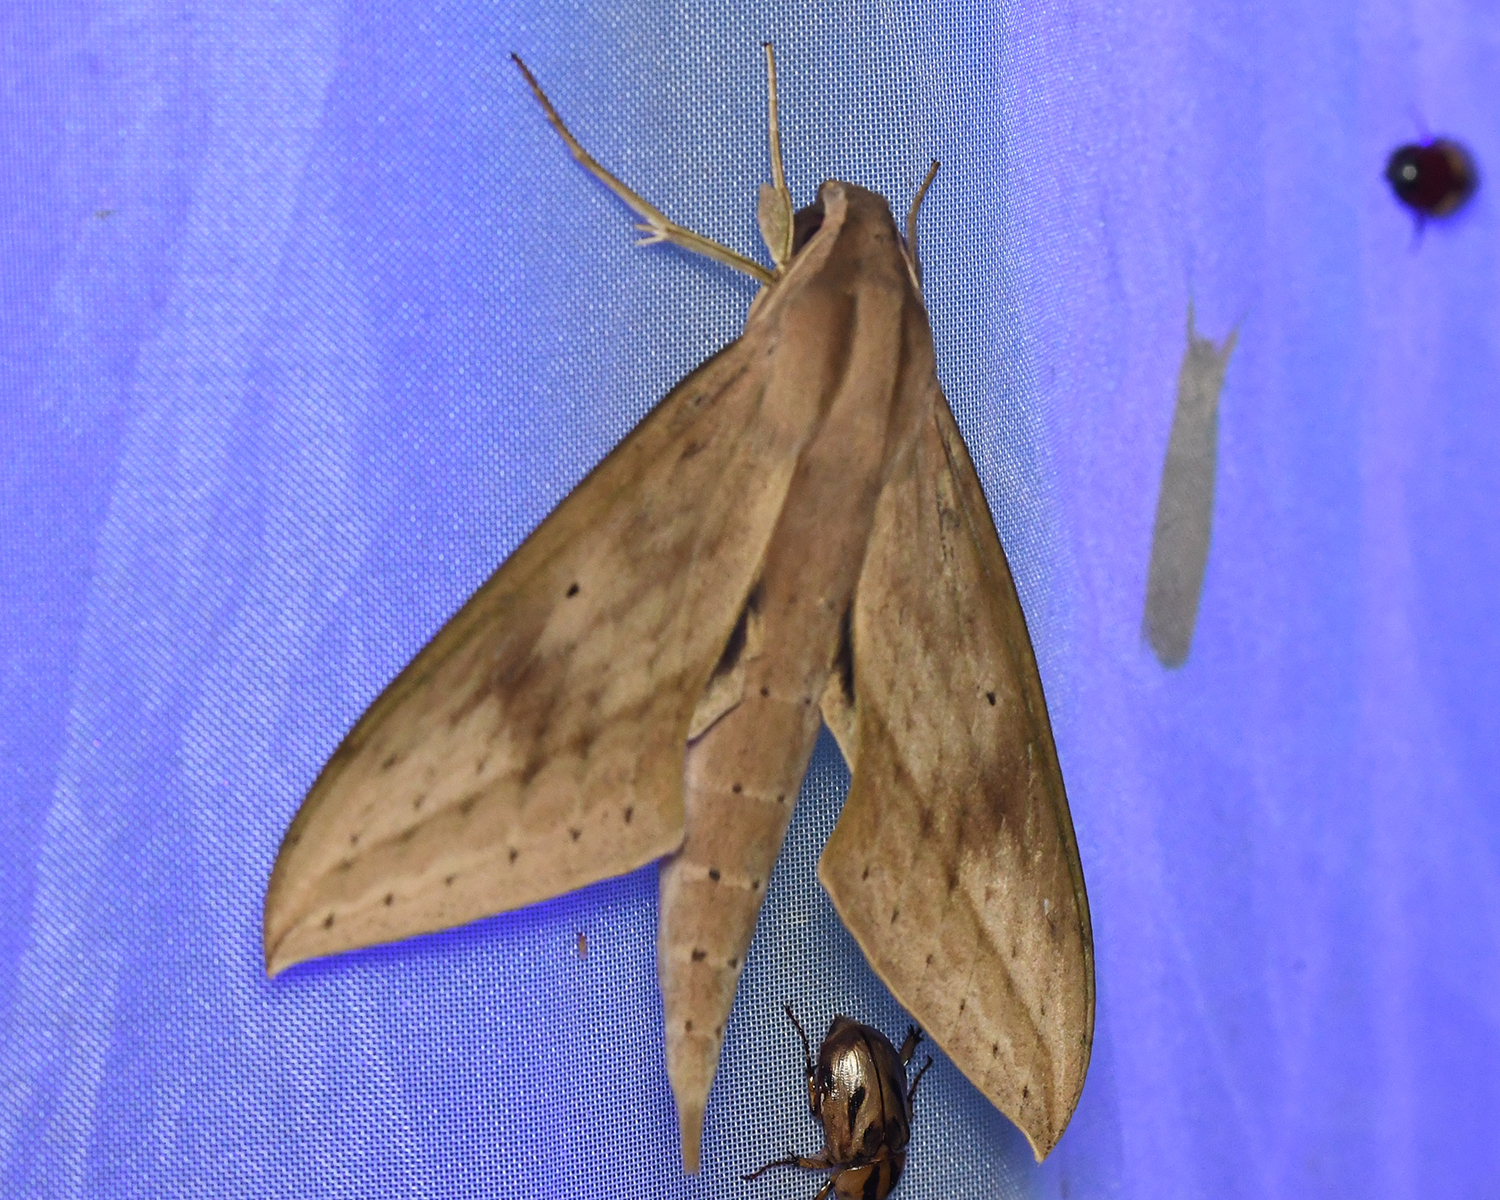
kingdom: Animalia
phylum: Arthropoda
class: Insecta
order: Lepidoptera
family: Sphingidae
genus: Xylophanes
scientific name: Xylophanes anubus
